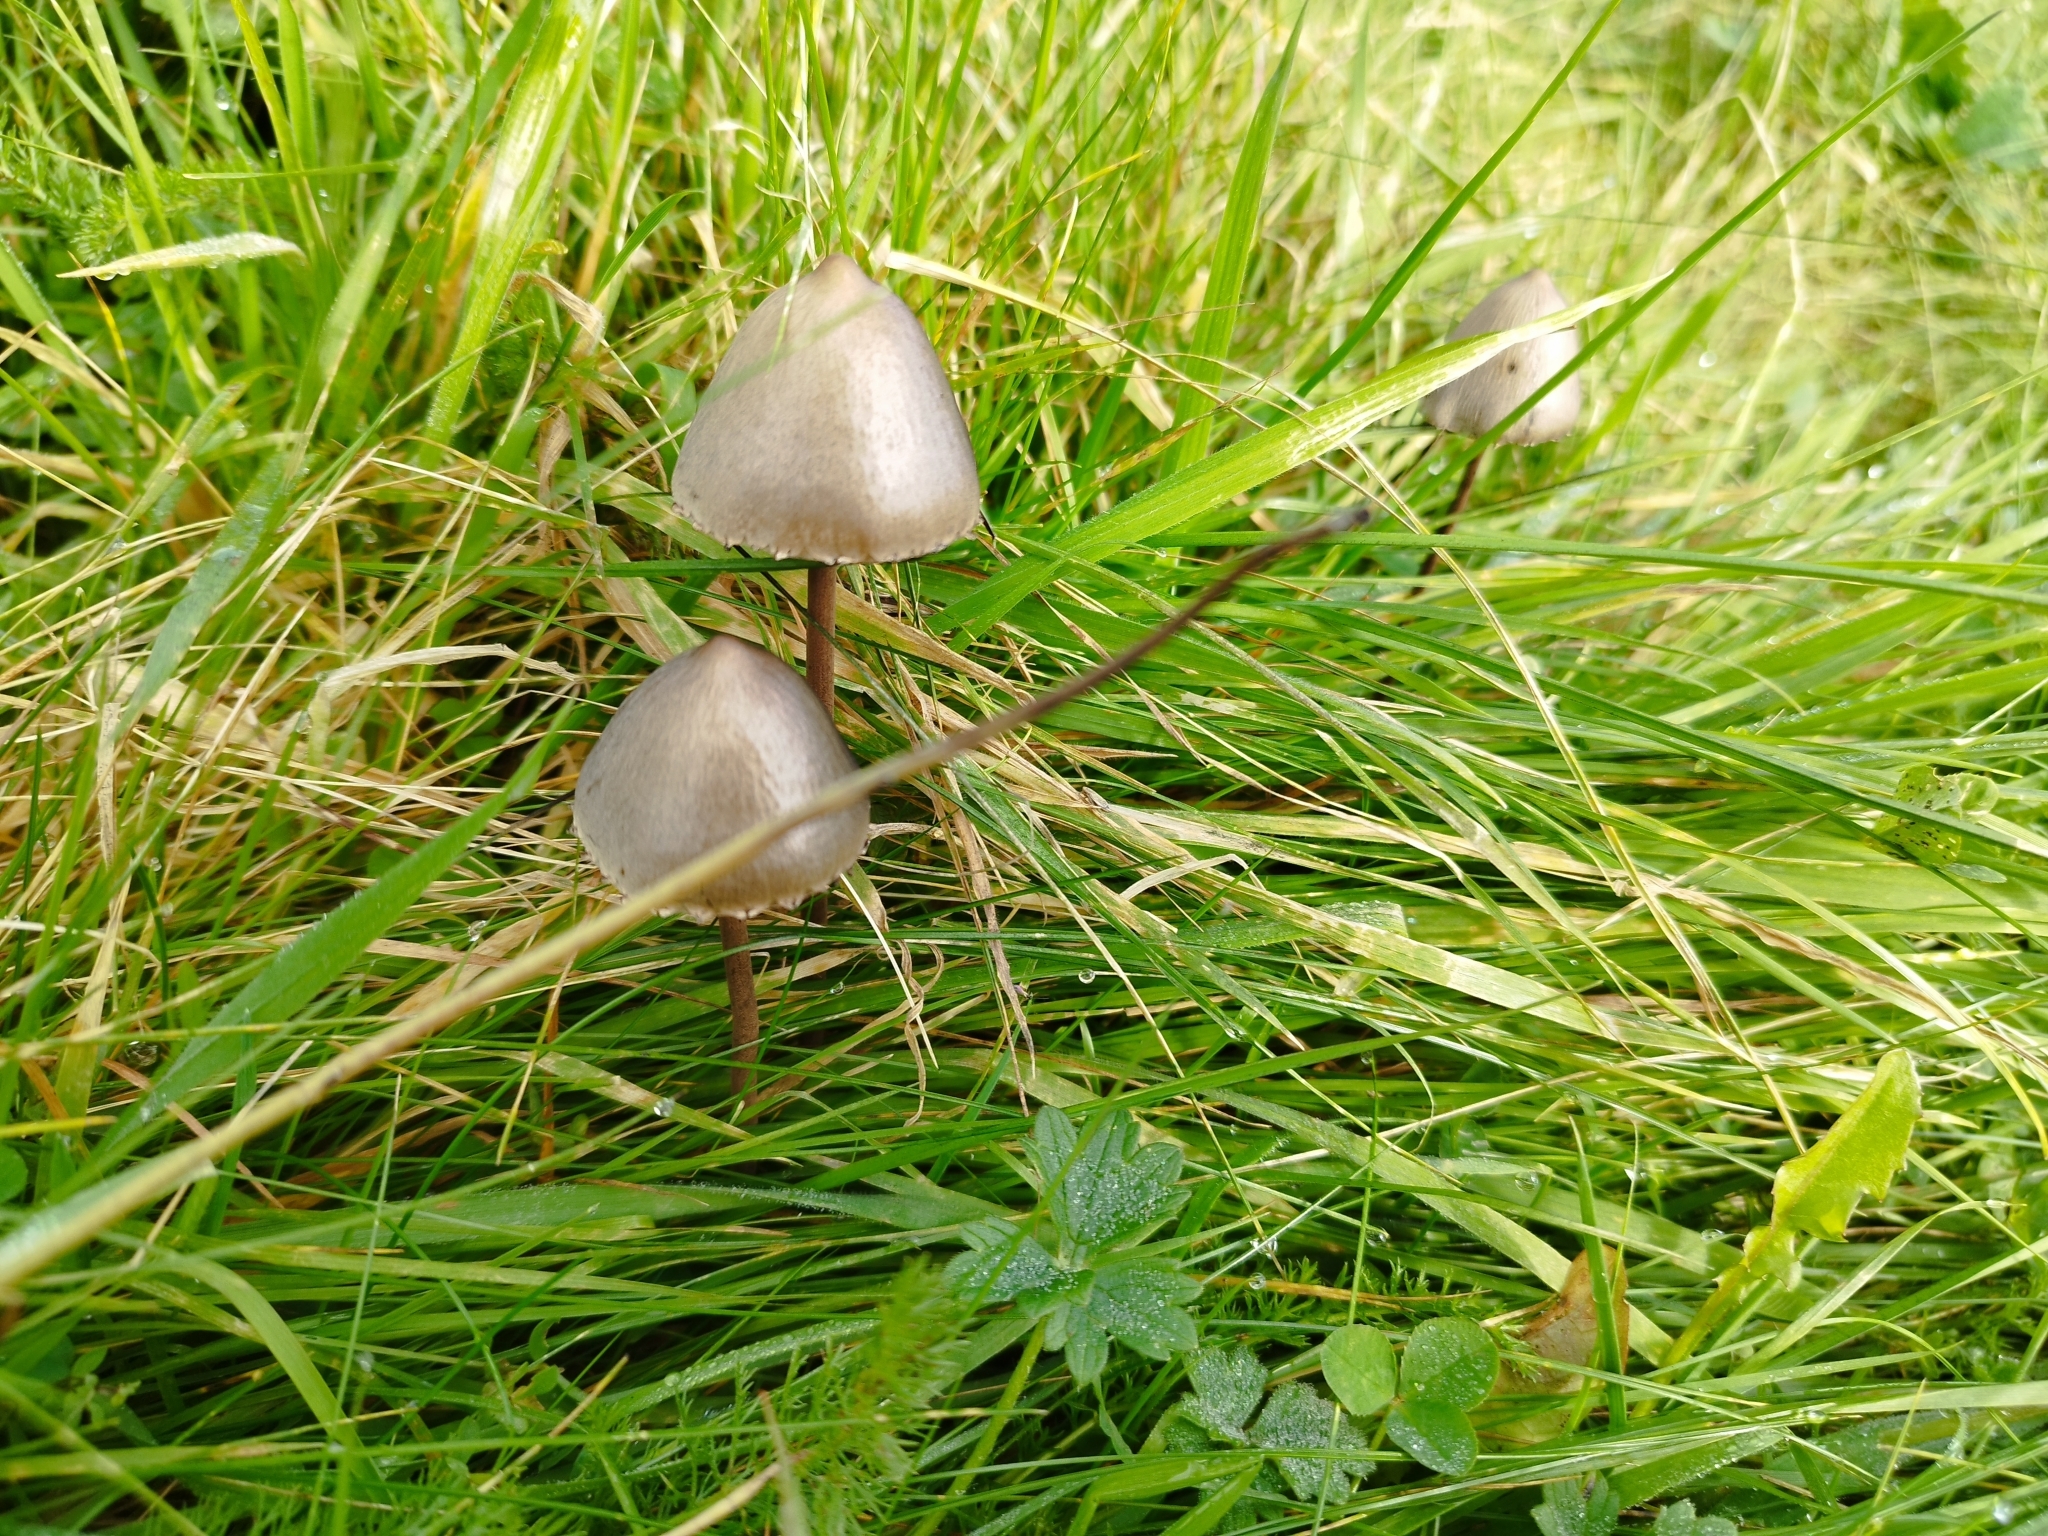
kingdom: Fungi
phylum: Basidiomycota
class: Agaricomycetes
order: Agaricales
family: Bolbitiaceae
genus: Panaeolus
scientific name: Panaeolus papilionaceus
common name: Petticoat mottlegill
